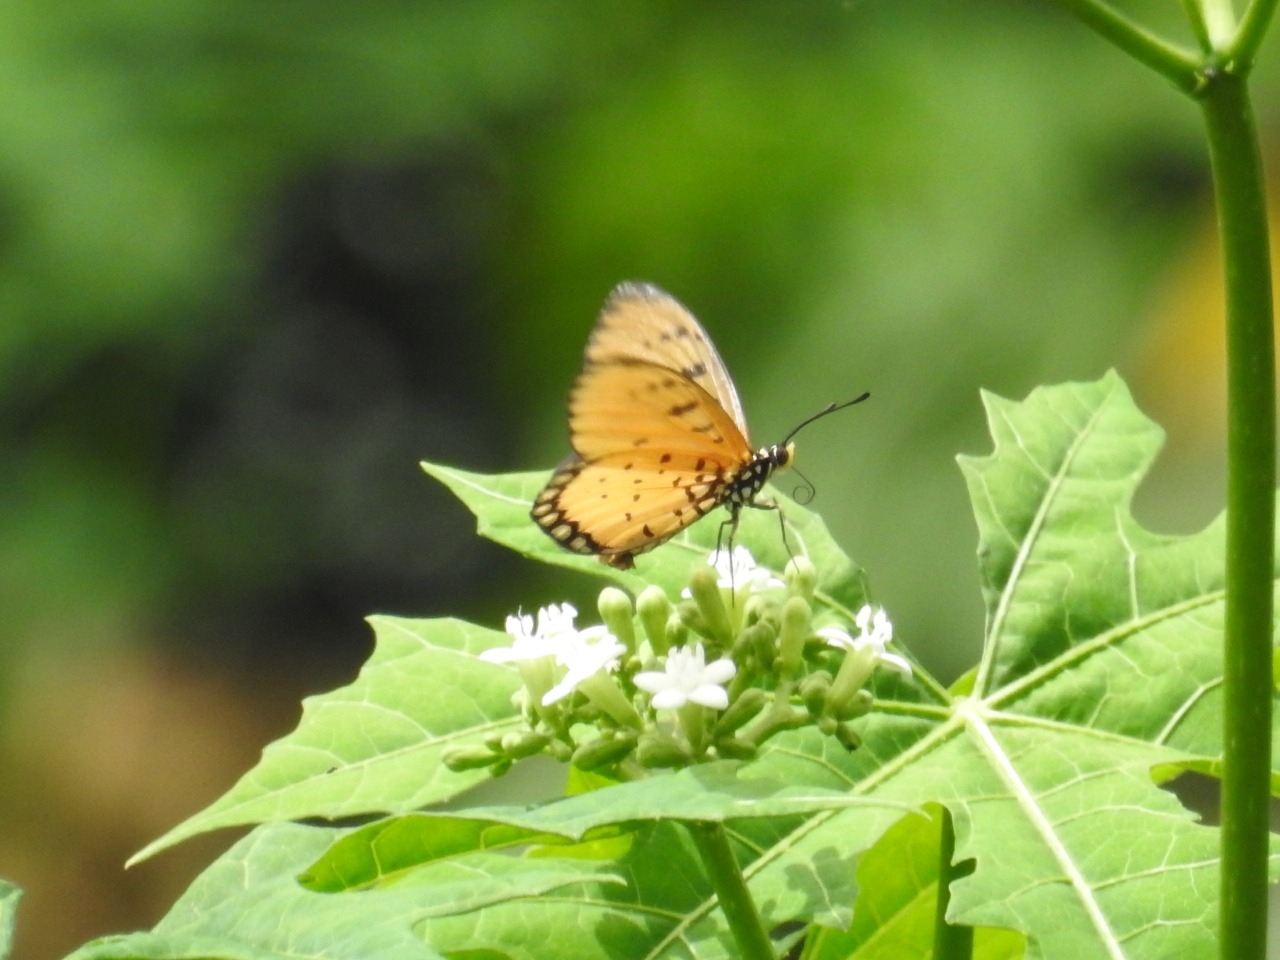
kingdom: Animalia
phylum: Arthropoda
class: Insecta
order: Lepidoptera
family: Nymphalidae
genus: Acraea
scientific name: Acraea terpsicore
